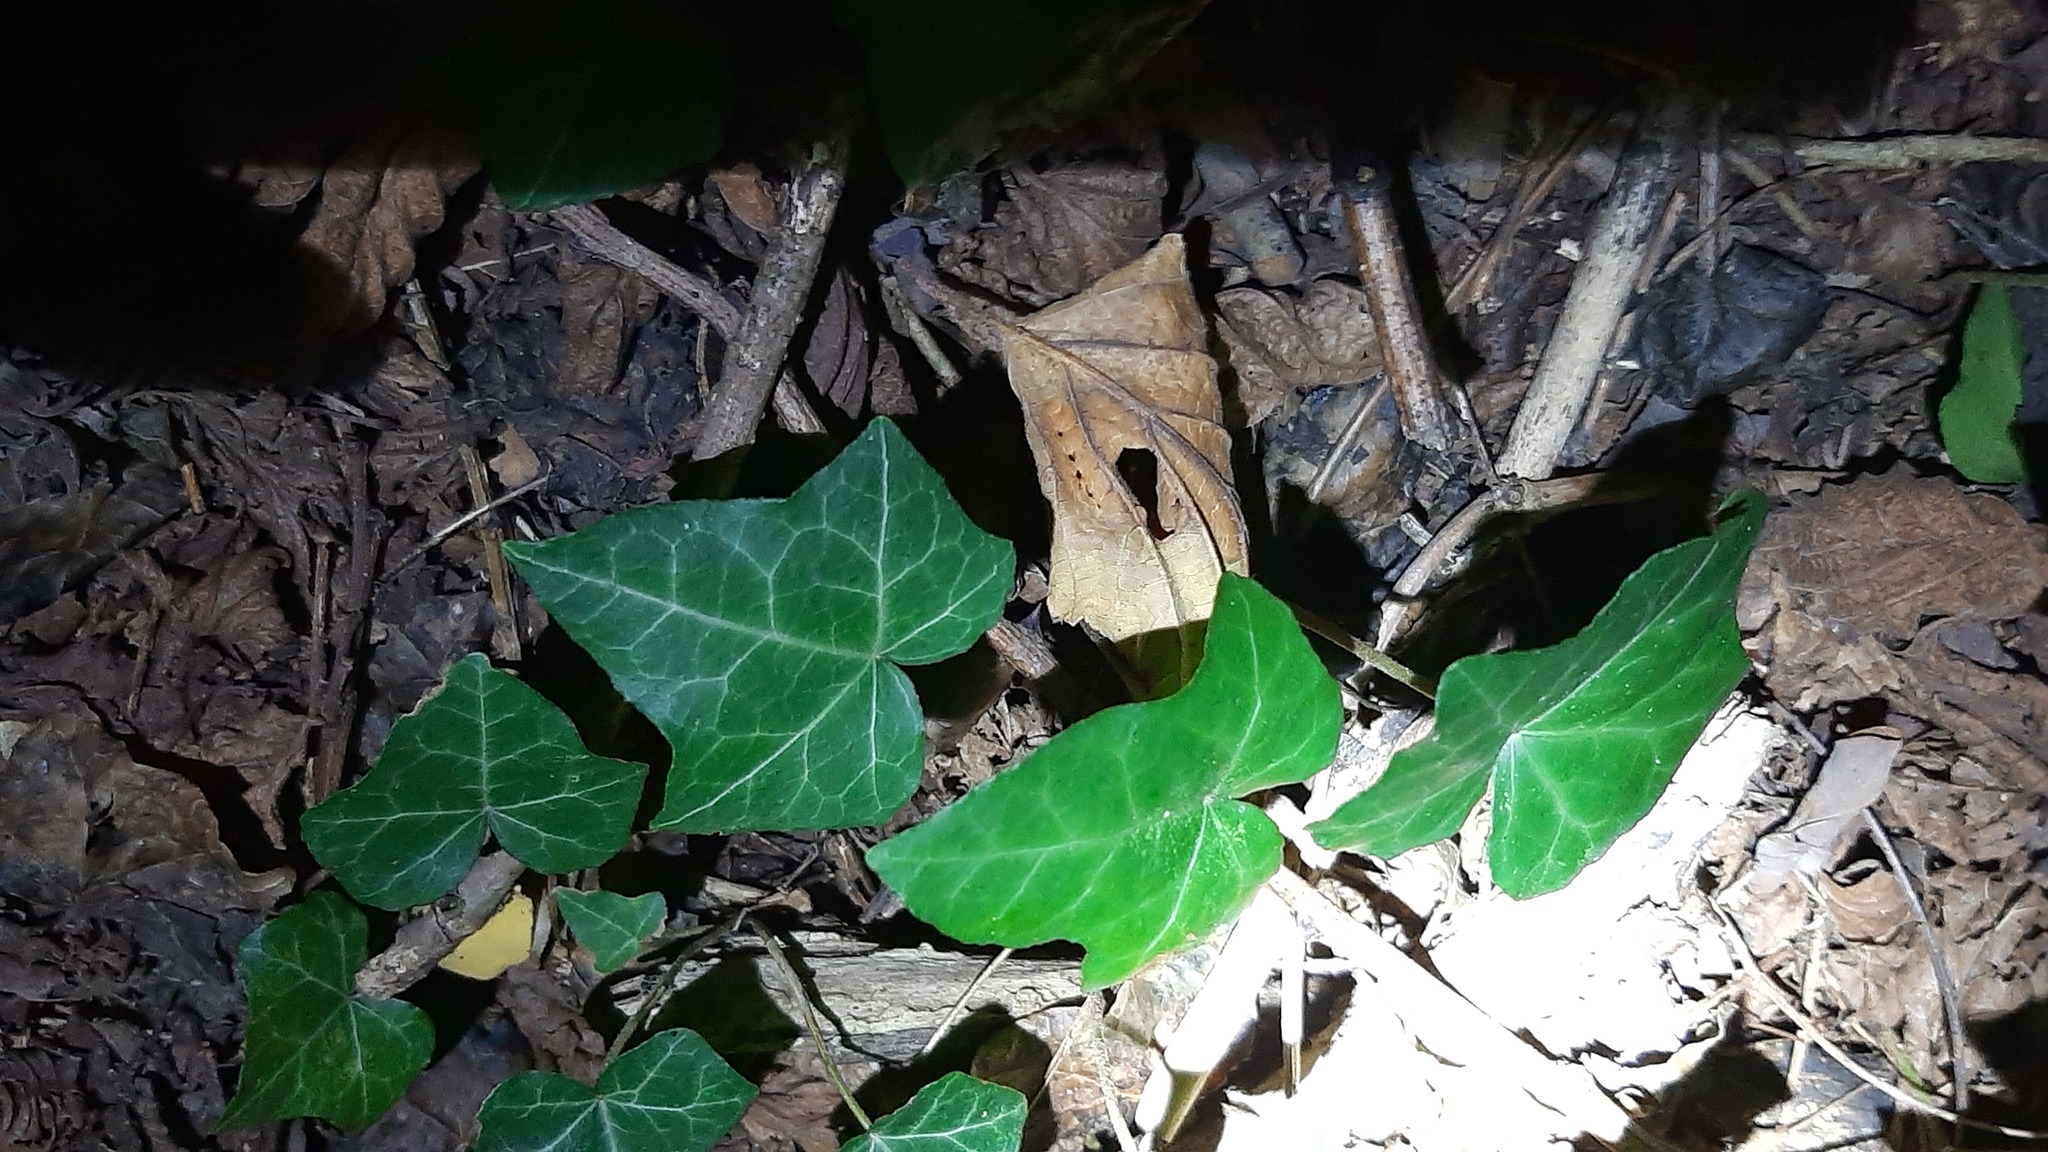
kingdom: Plantae
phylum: Tracheophyta
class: Magnoliopsida
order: Apiales
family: Araliaceae
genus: Hedera
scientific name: Hedera helix
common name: Ivy
